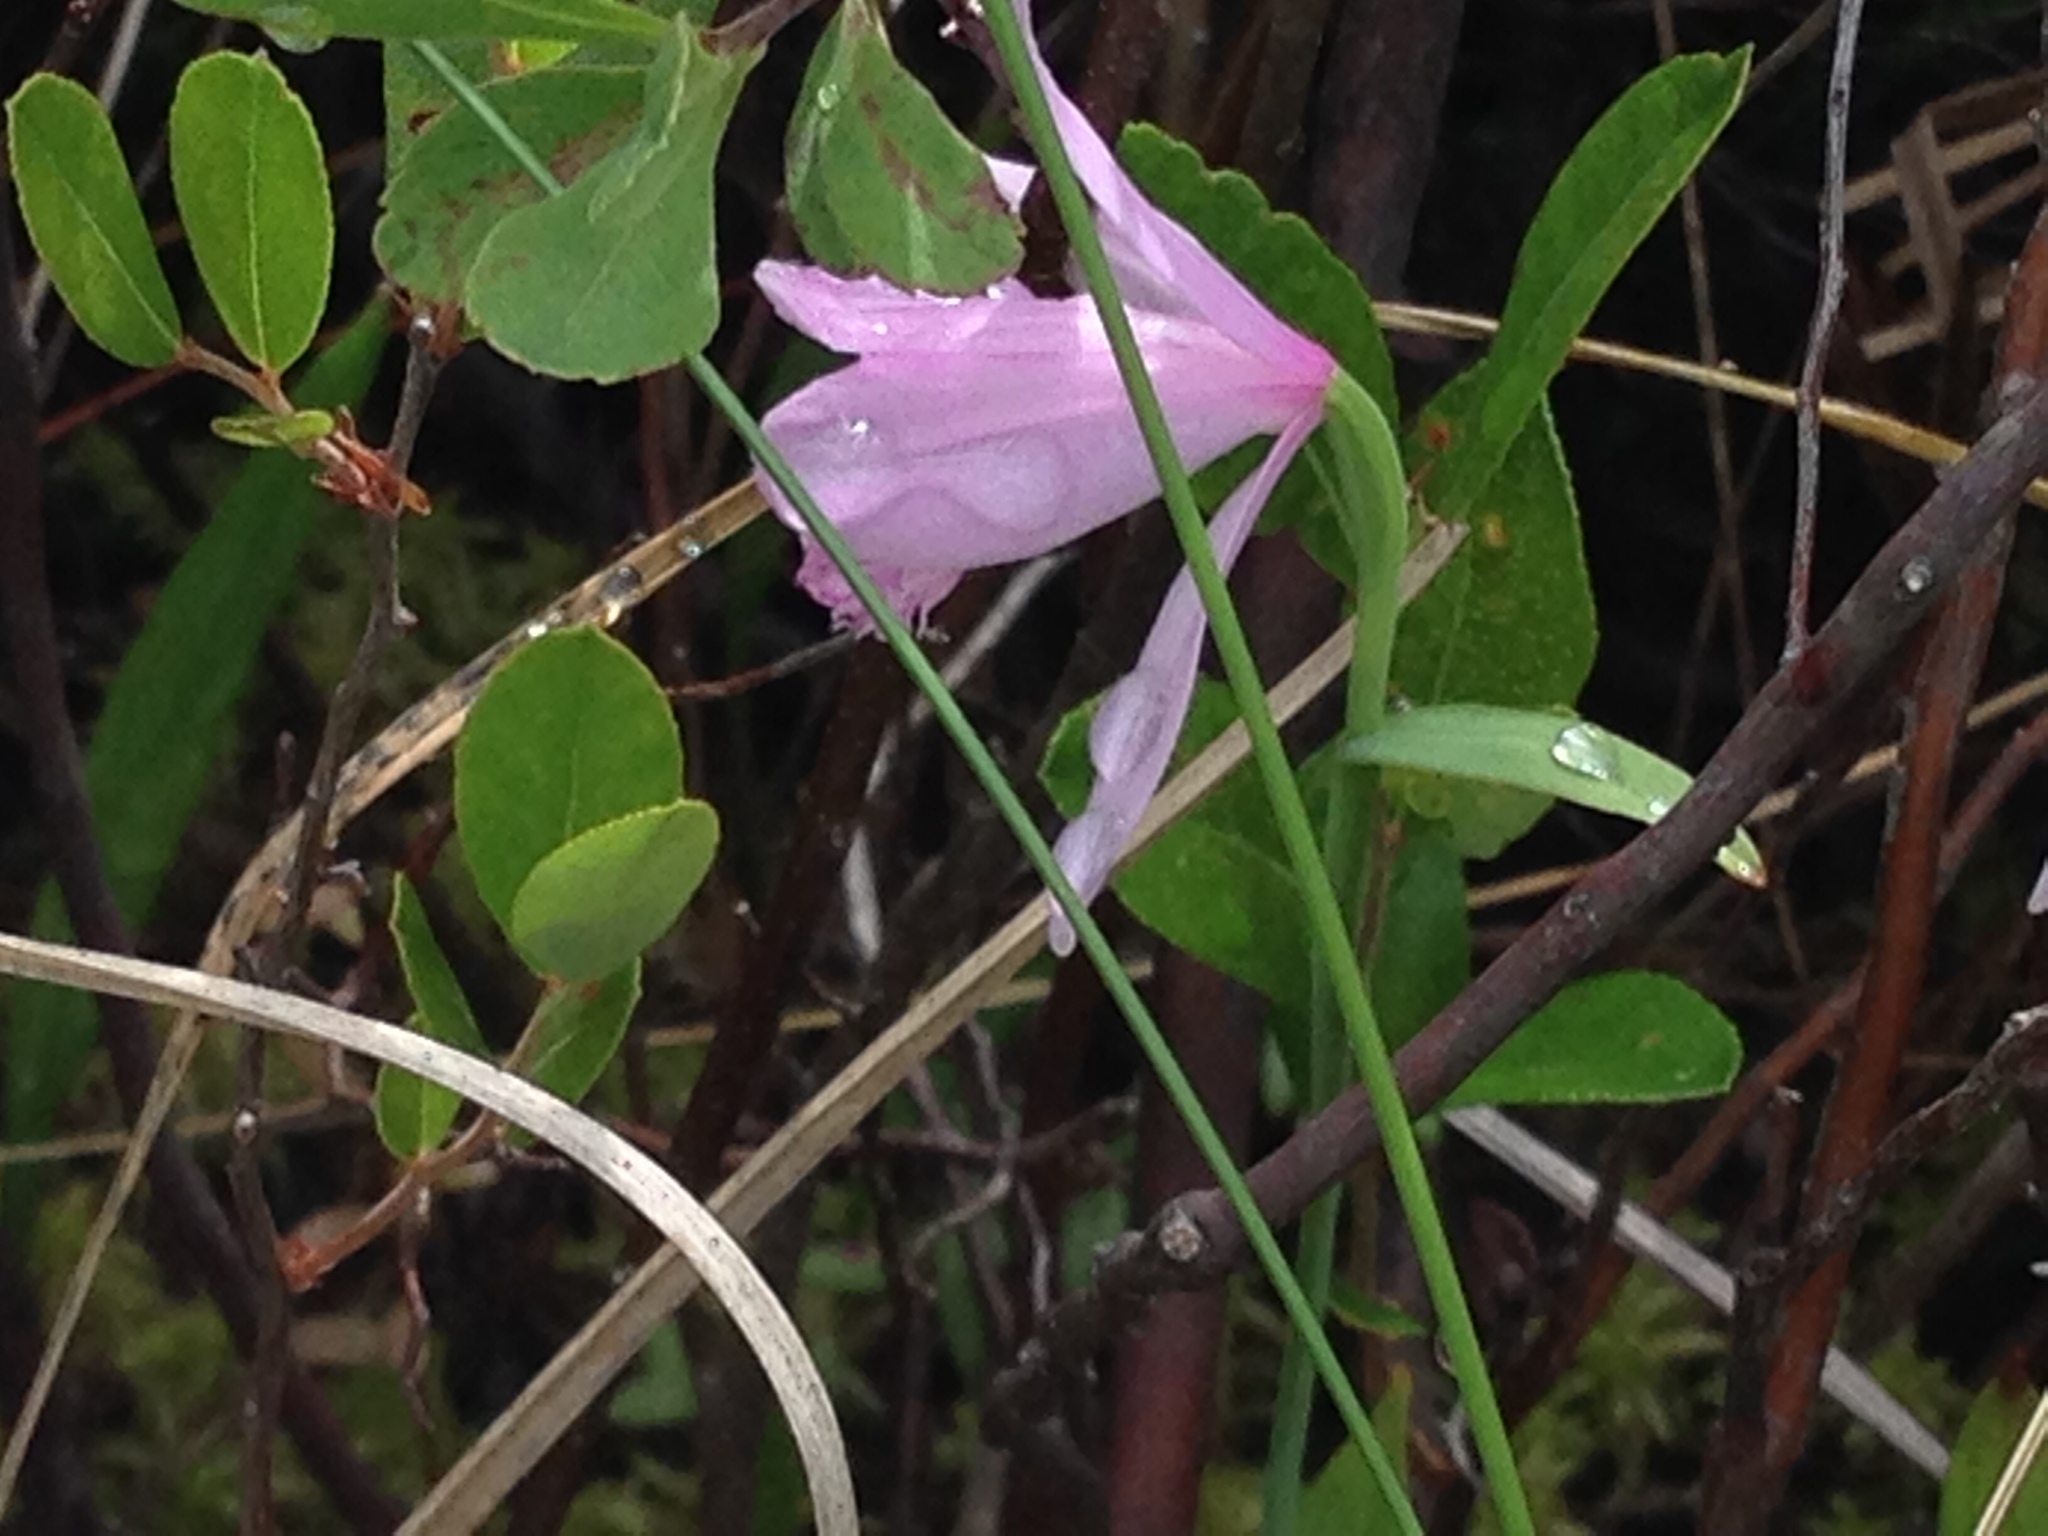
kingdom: Plantae
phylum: Tracheophyta
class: Liliopsida
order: Asparagales
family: Orchidaceae
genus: Pogonia
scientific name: Pogonia ophioglossoides
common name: Rose pogonia
